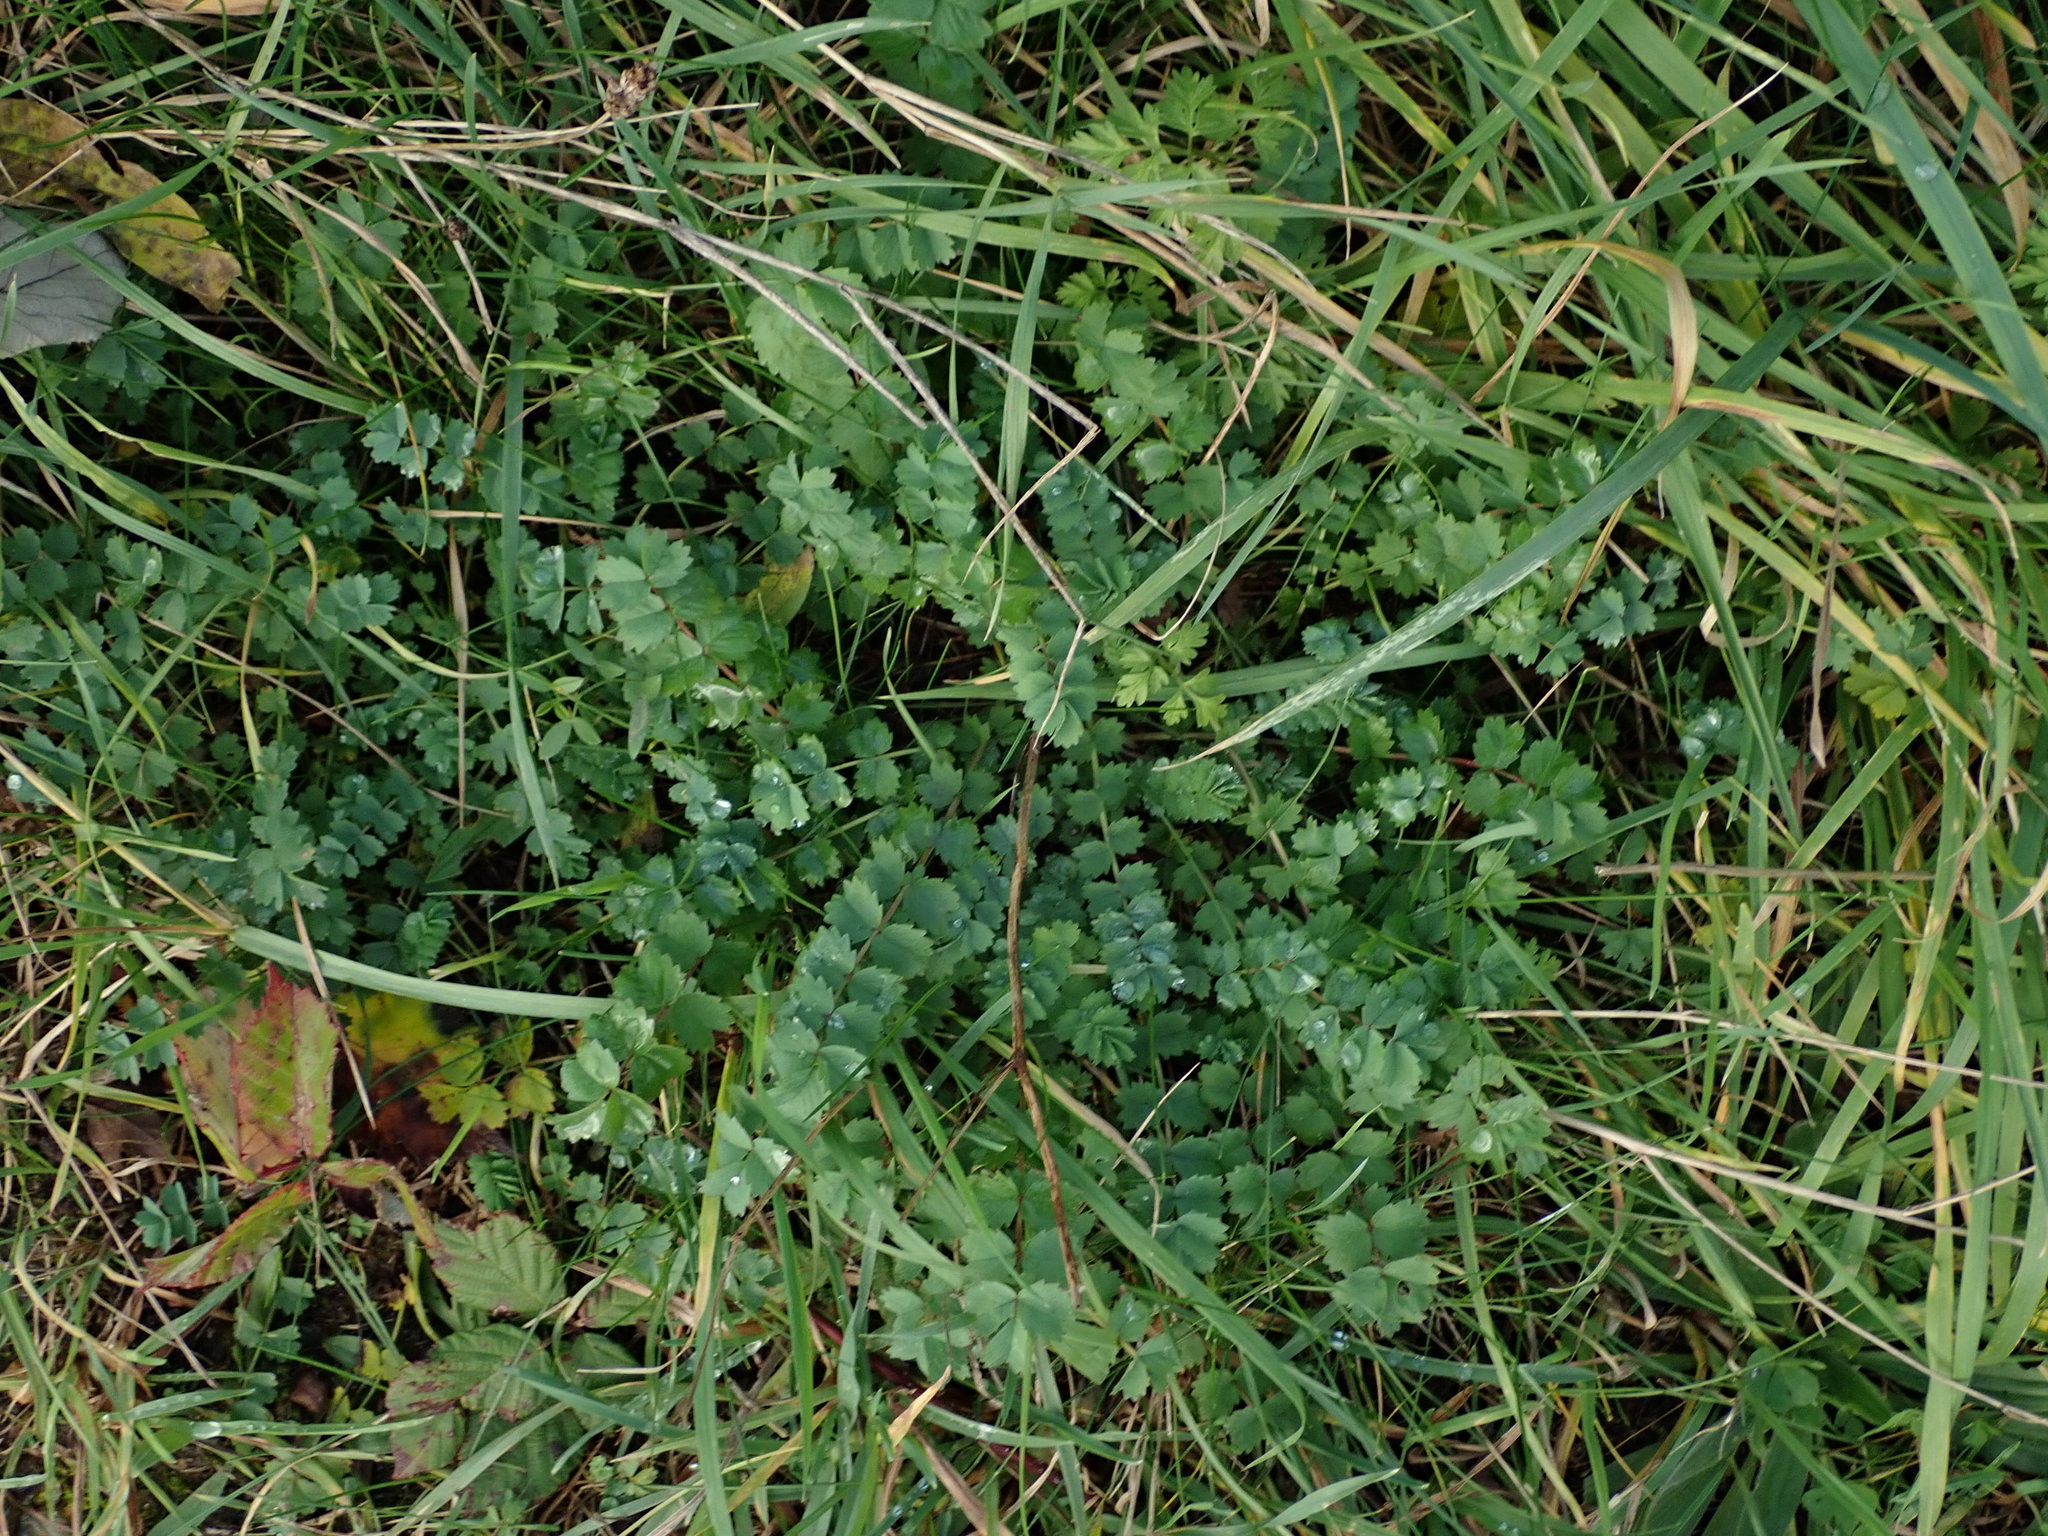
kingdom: Plantae
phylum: Tracheophyta
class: Magnoliopsida
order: Rosales
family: Rosaceae
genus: Poterium
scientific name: Poterium sanguisorba
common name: Salad burnet
